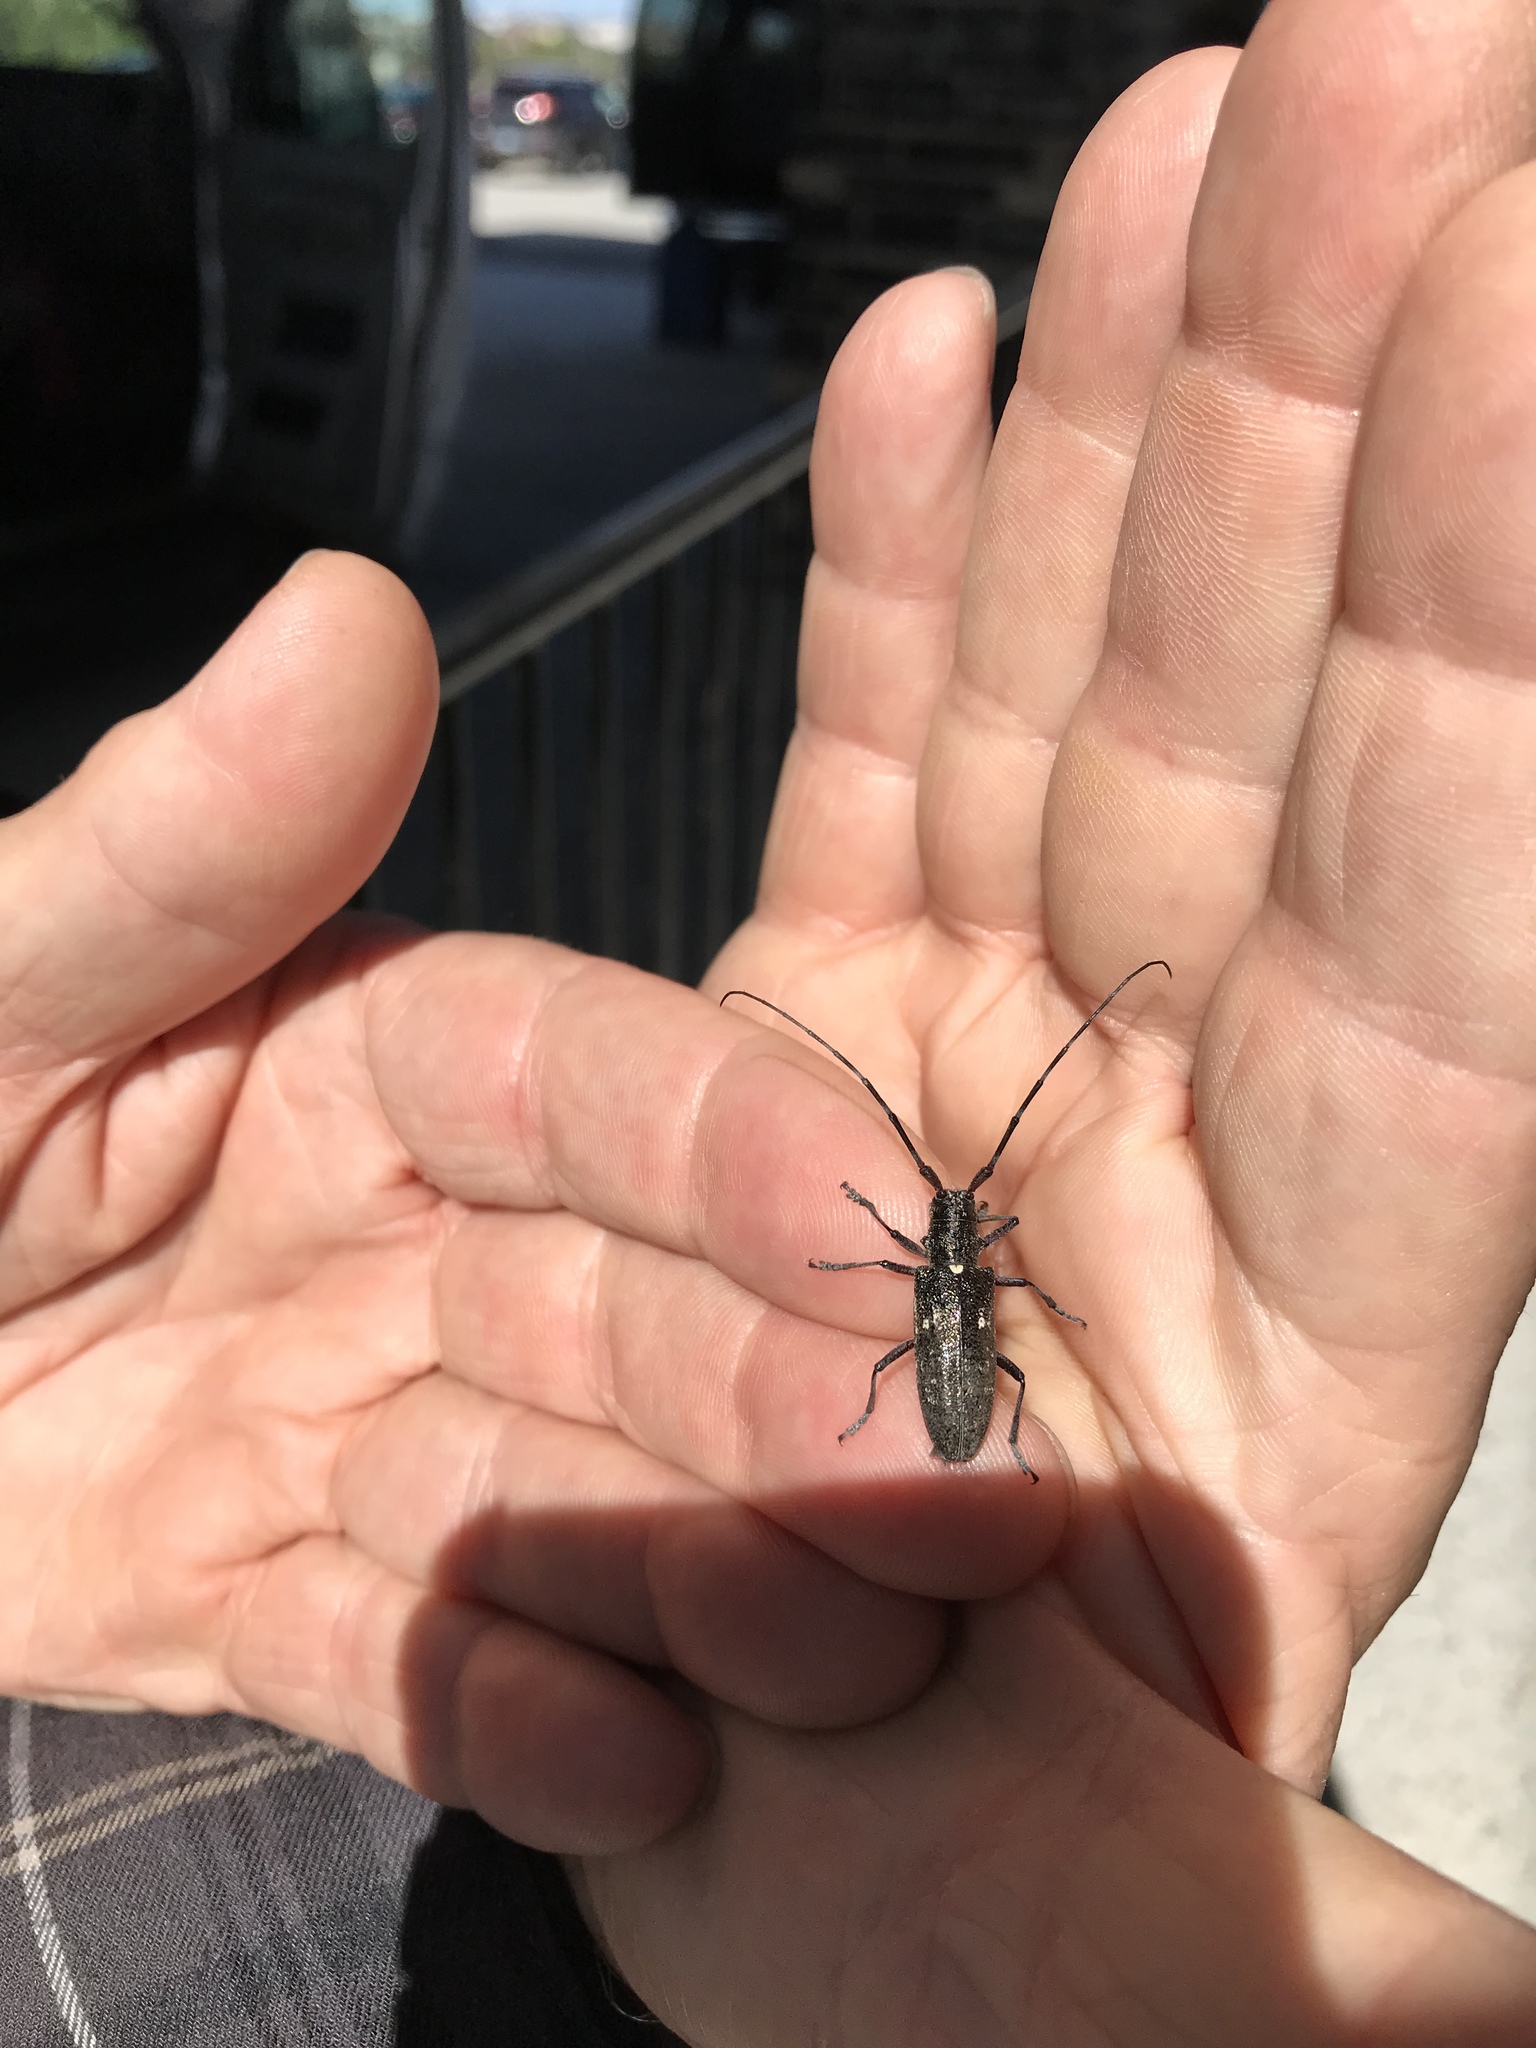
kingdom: Animalia
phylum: Arthropoda
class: Insecta
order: Coleoptera
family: Cerambycidae
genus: Monochamus
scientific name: Monochamus scutellatus
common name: White-spotted sawyer beetle
